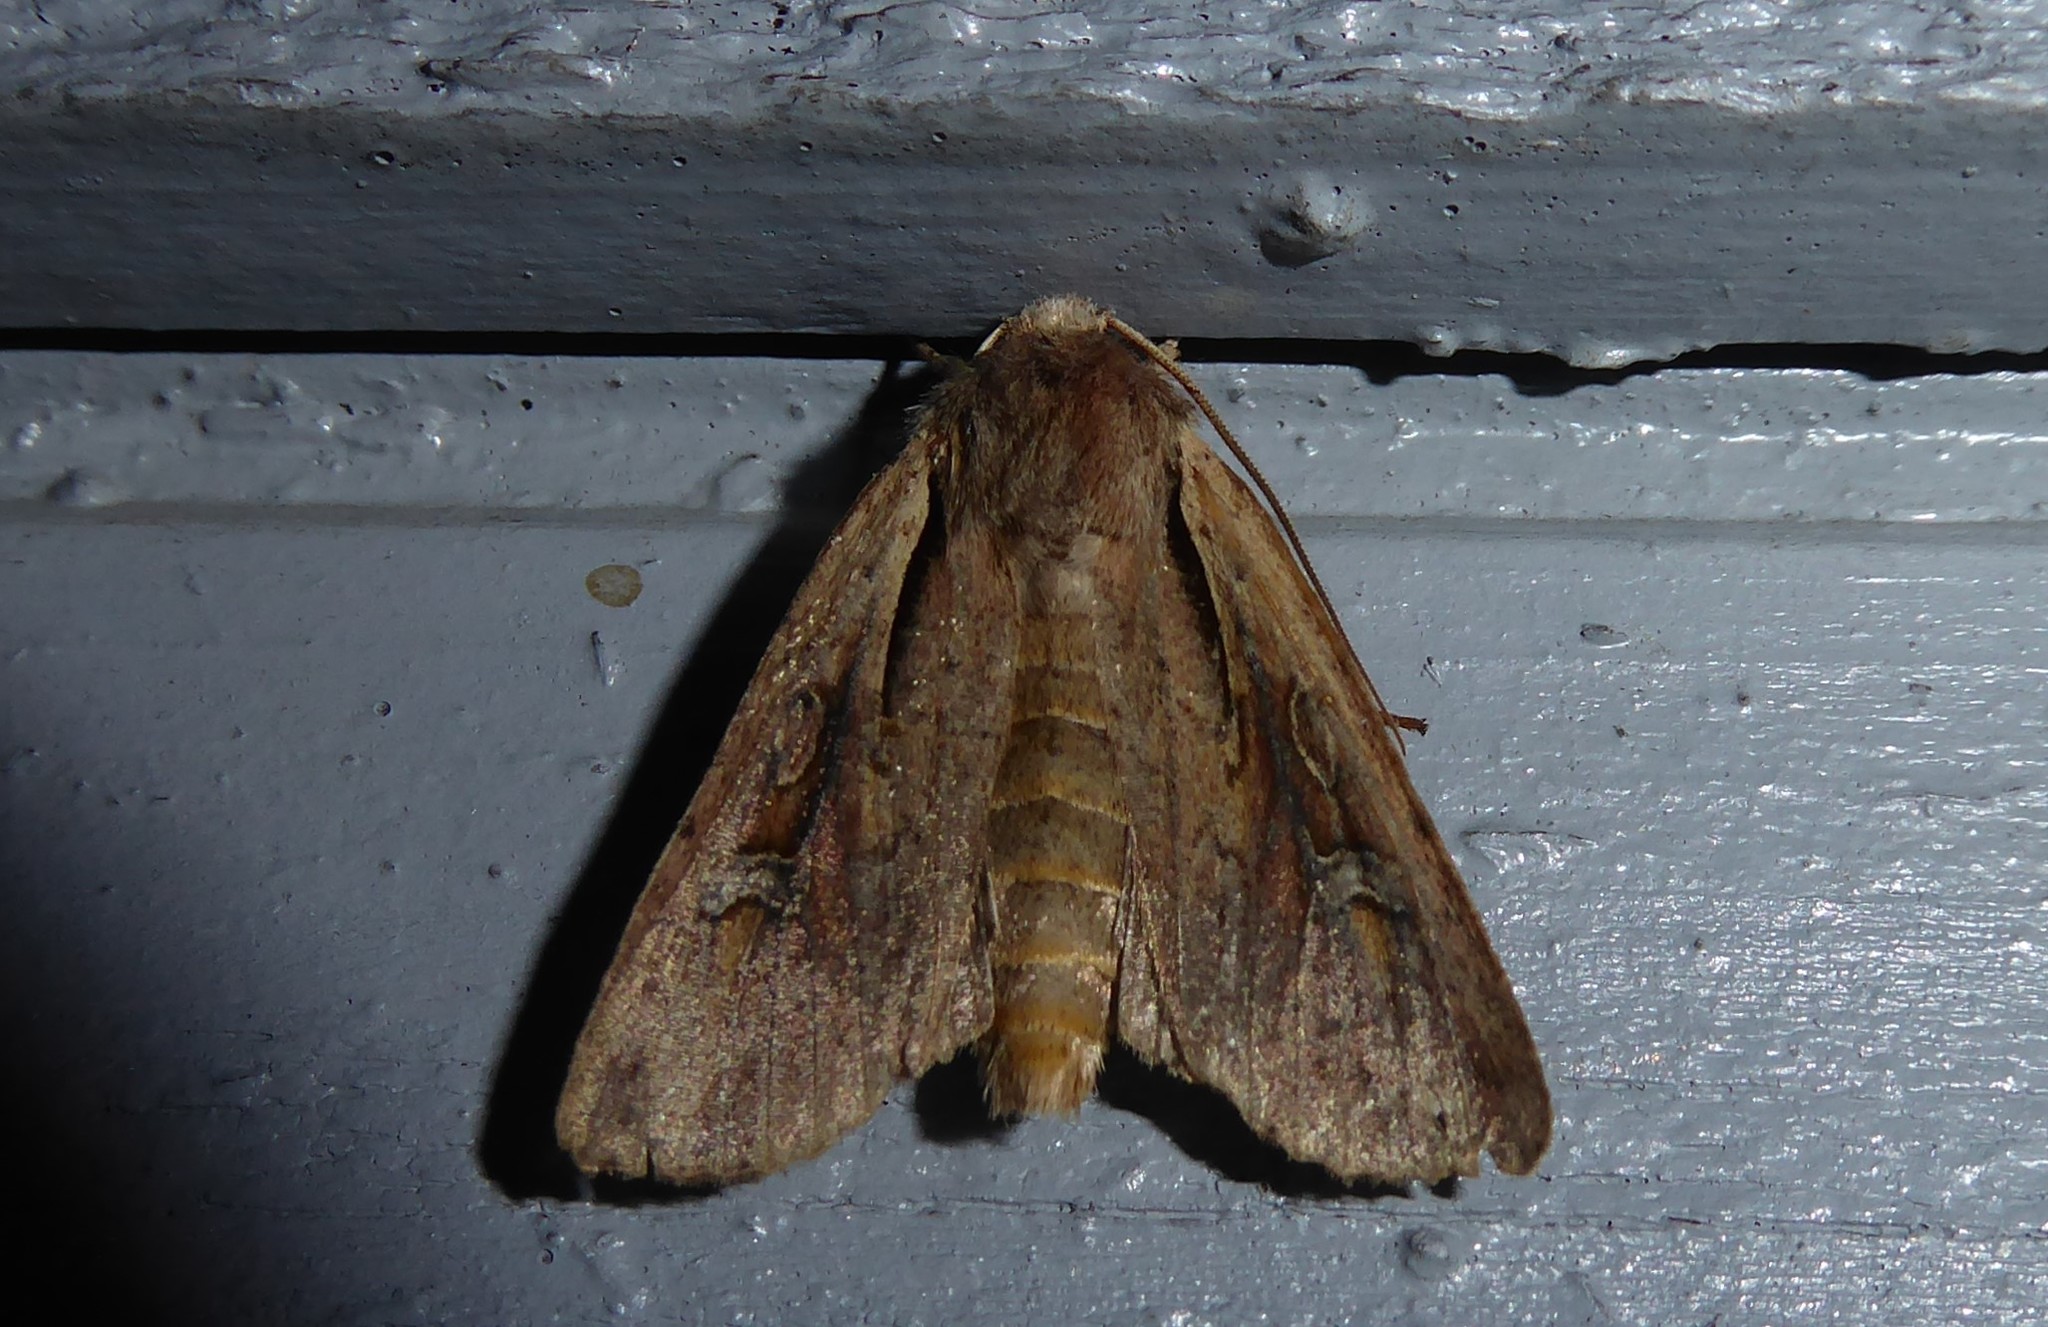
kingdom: Animalia
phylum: Arthropoda
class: Insecta
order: Lepidoptera
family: Noctuidae
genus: Ichneutica
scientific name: Ichneutica atristriga
